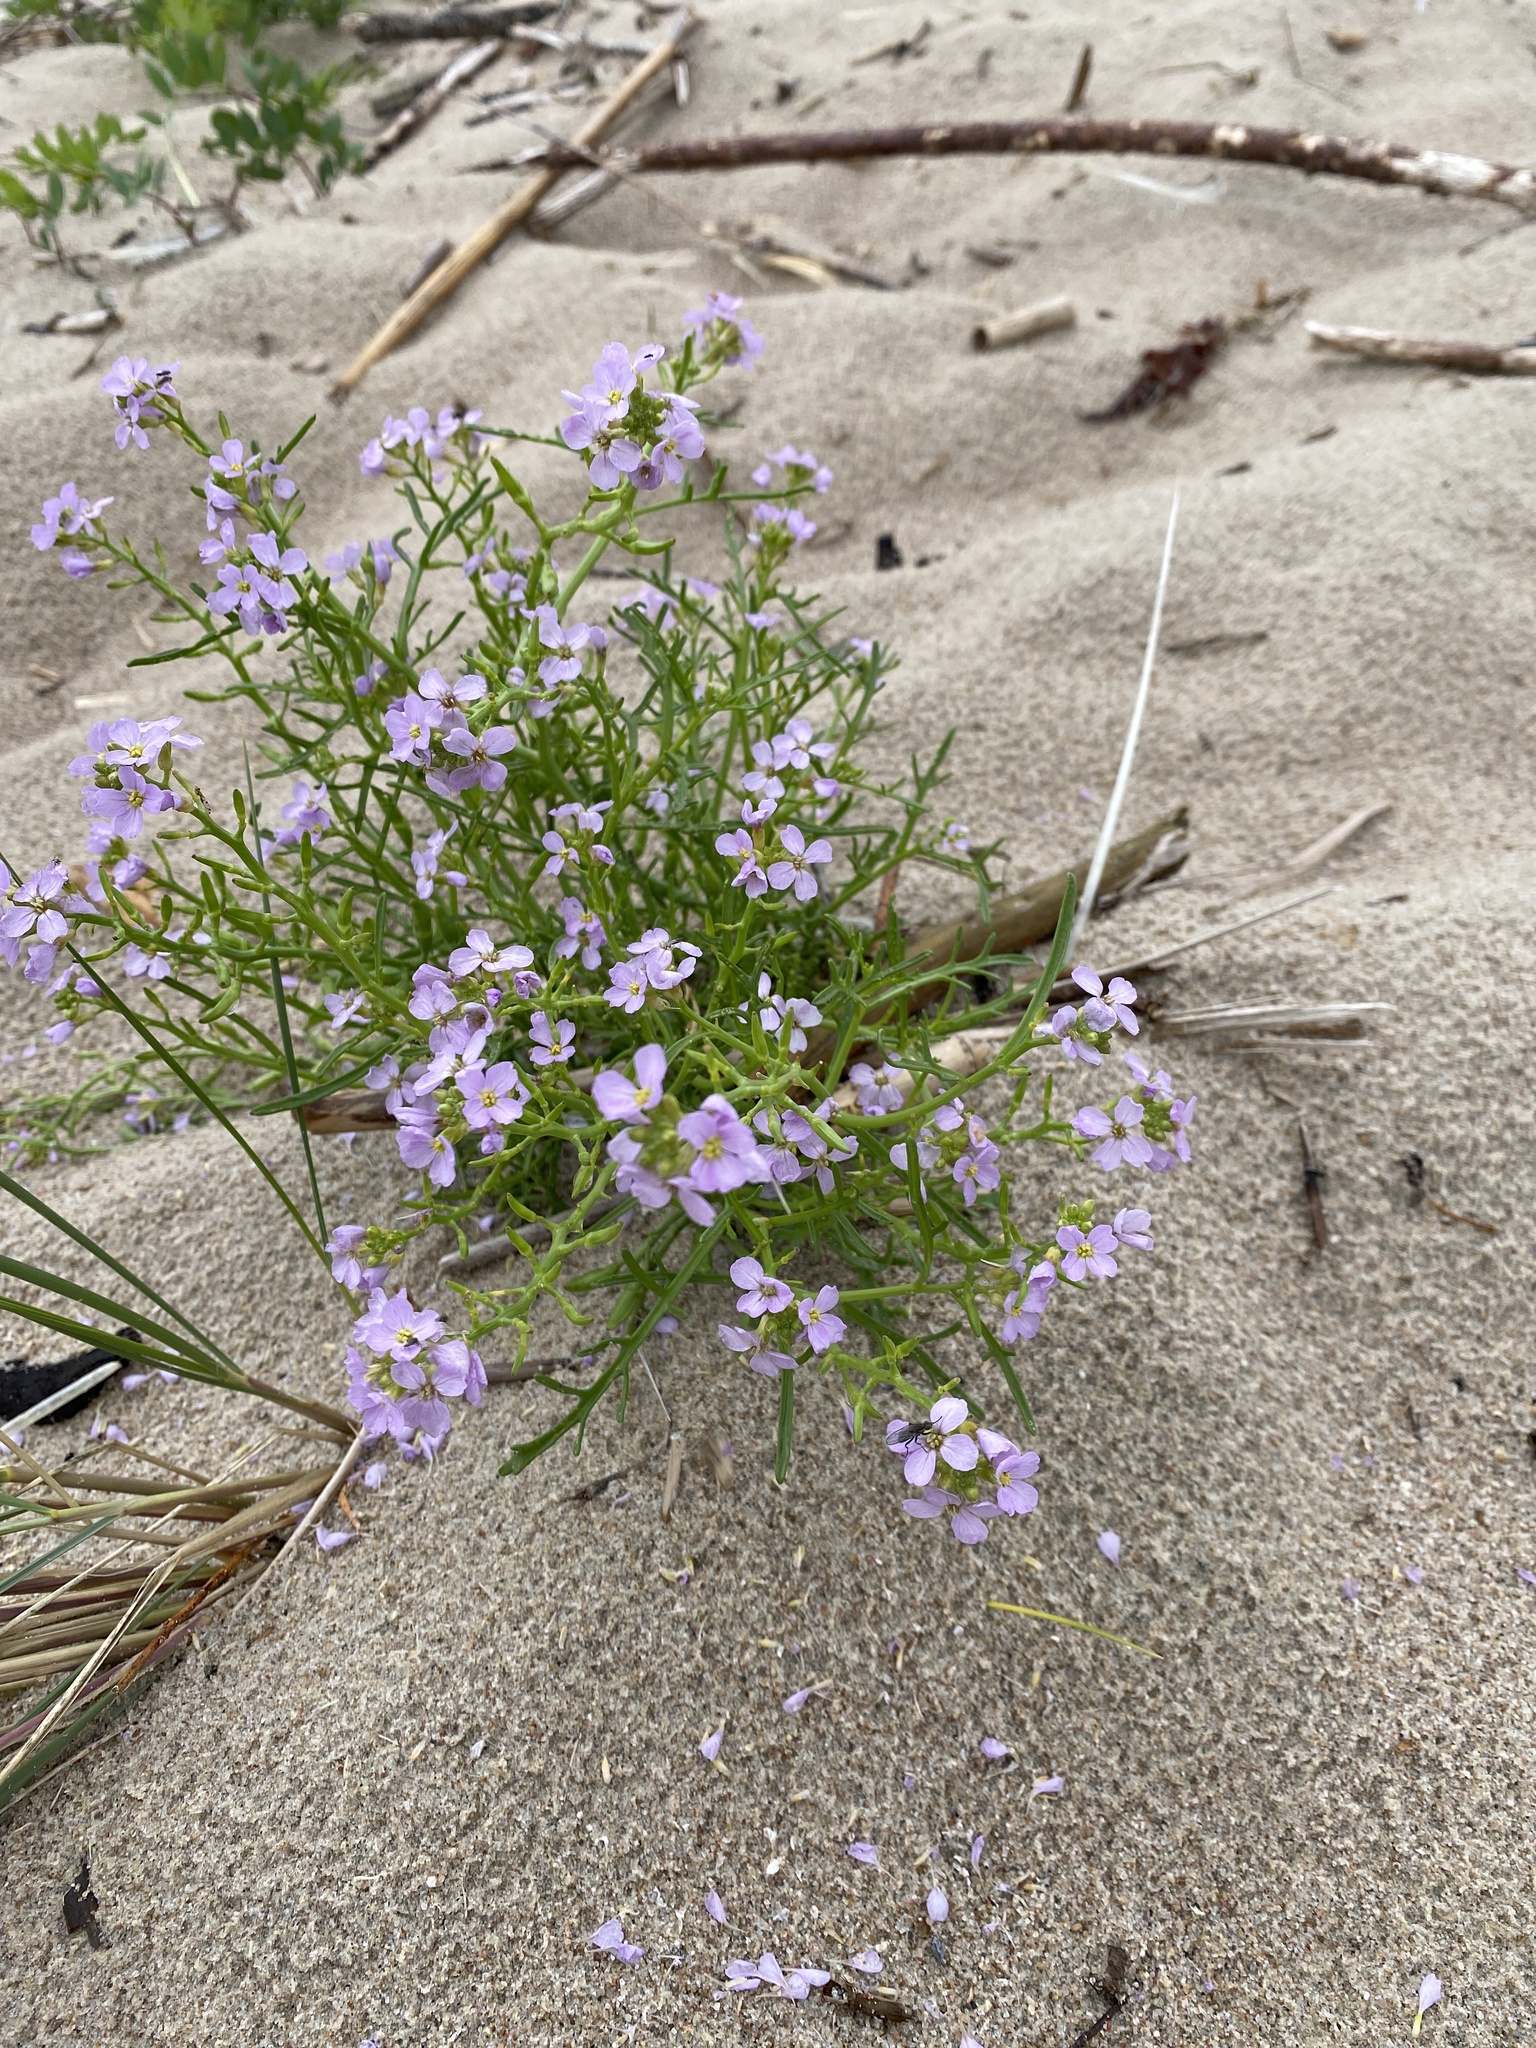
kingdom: Plantae
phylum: Tracheophyta
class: Magnoliopsida
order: Brassicales
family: Brassicaceae
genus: Cakile
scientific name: Cakile maritima
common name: Sea rocket
